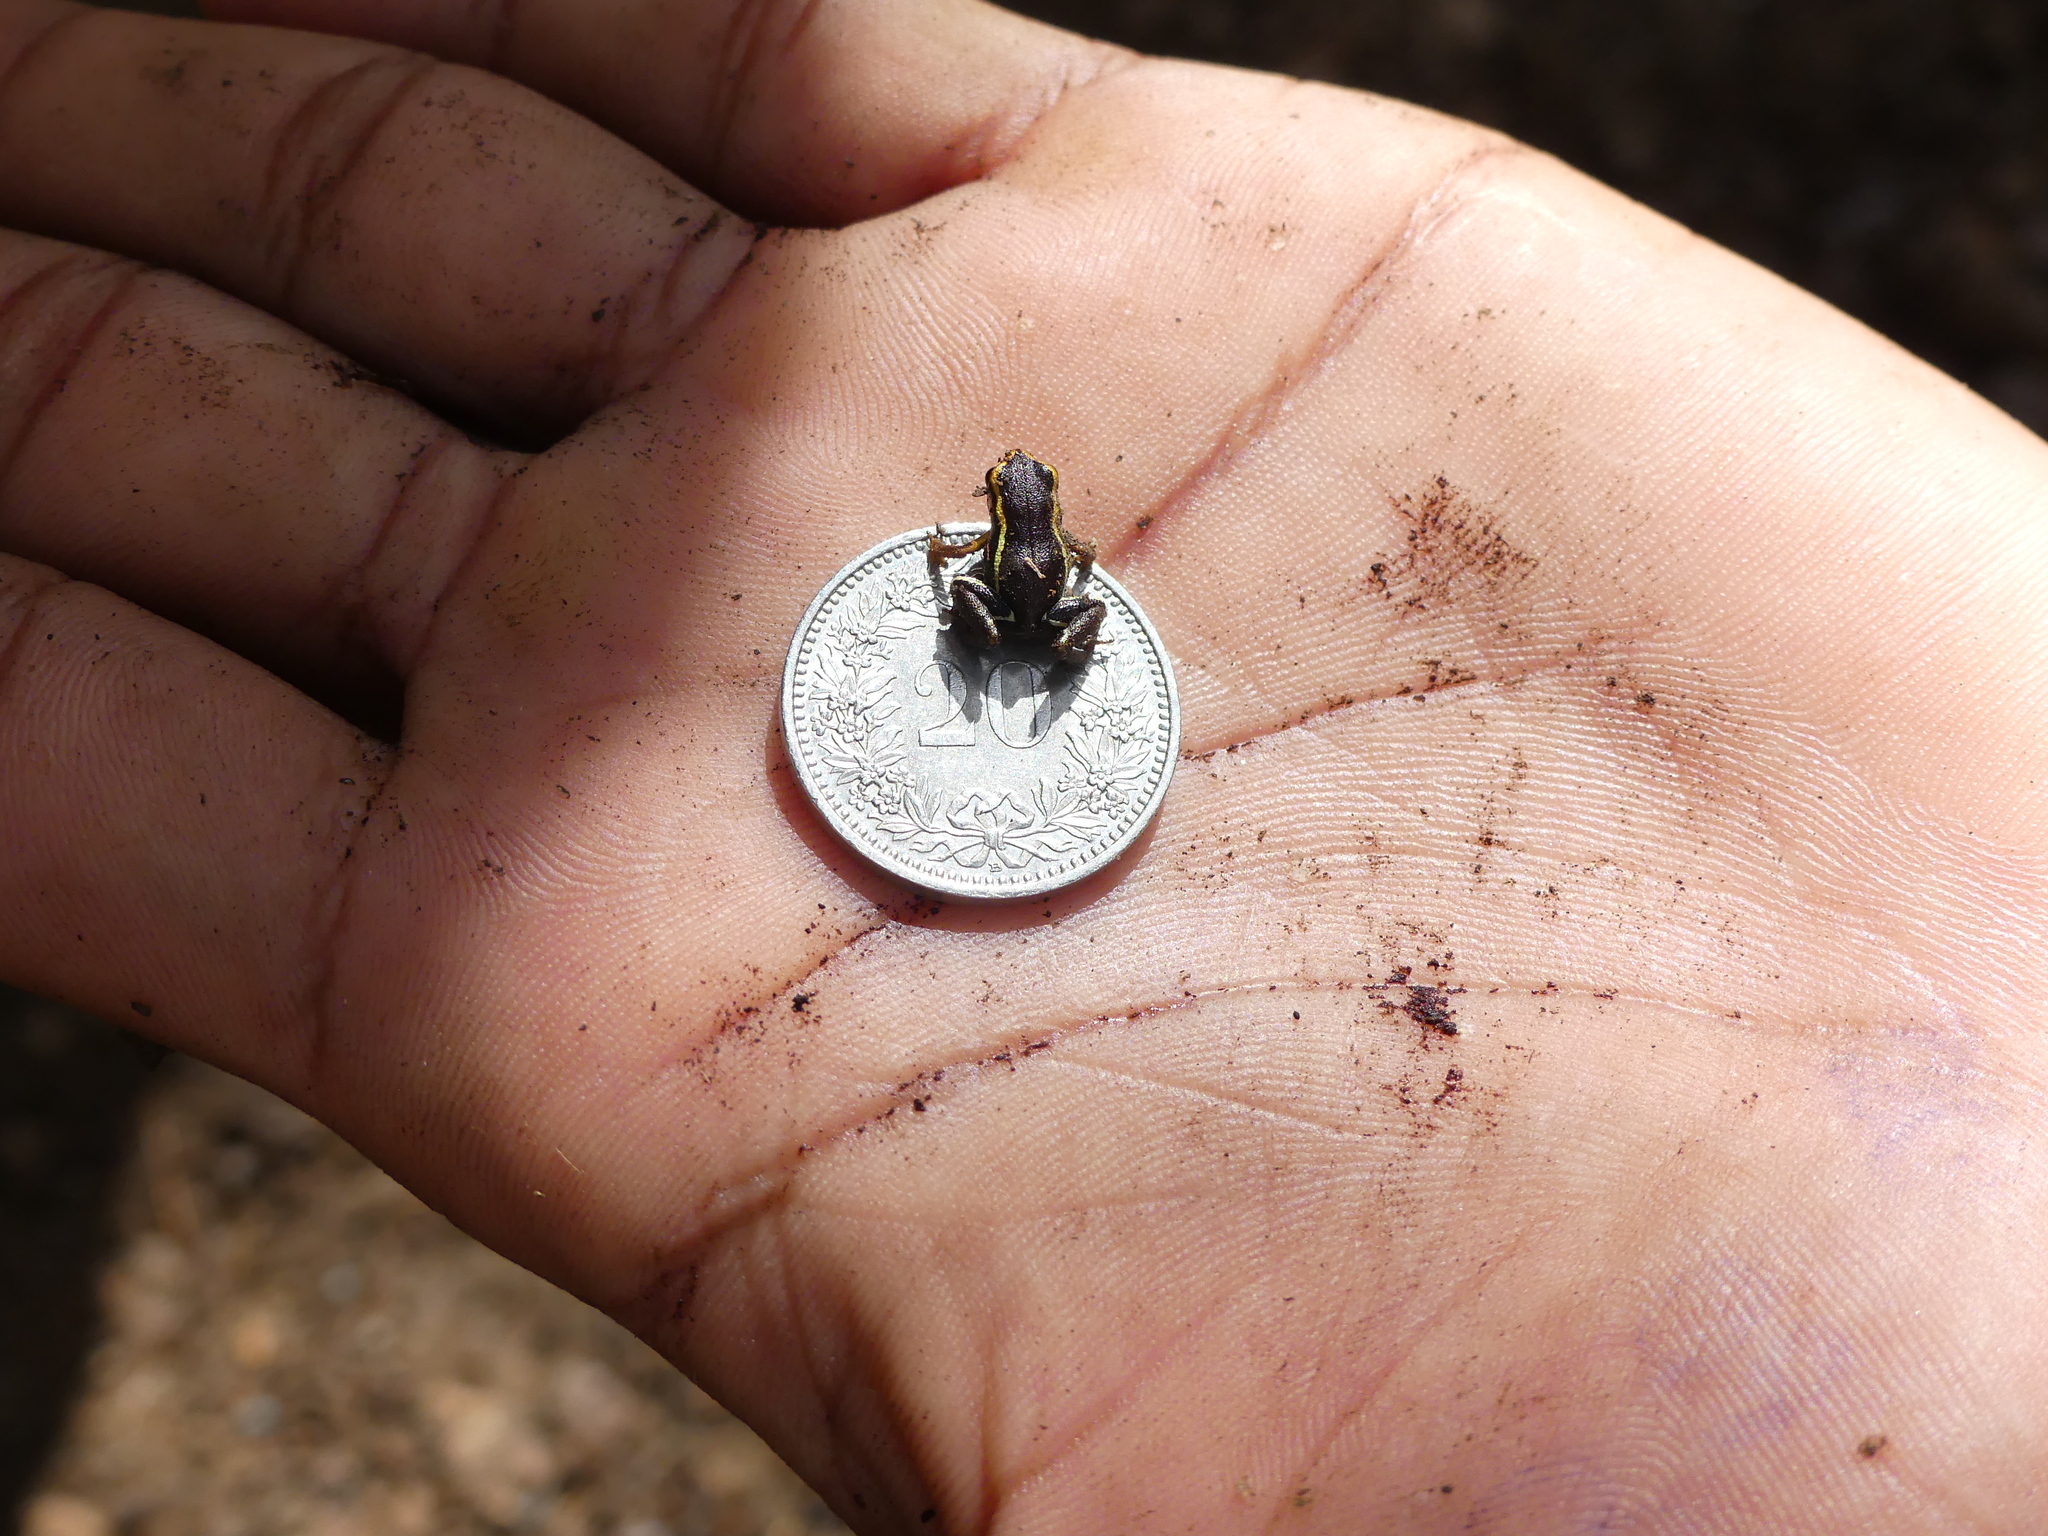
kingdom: Animalia
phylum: Chordata
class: Amphibia
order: Anura
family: Eleutherodactylidae
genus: Eleutherodactylus
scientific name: Eleutherodactylus iberia
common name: Monte iberia dwarf frog
